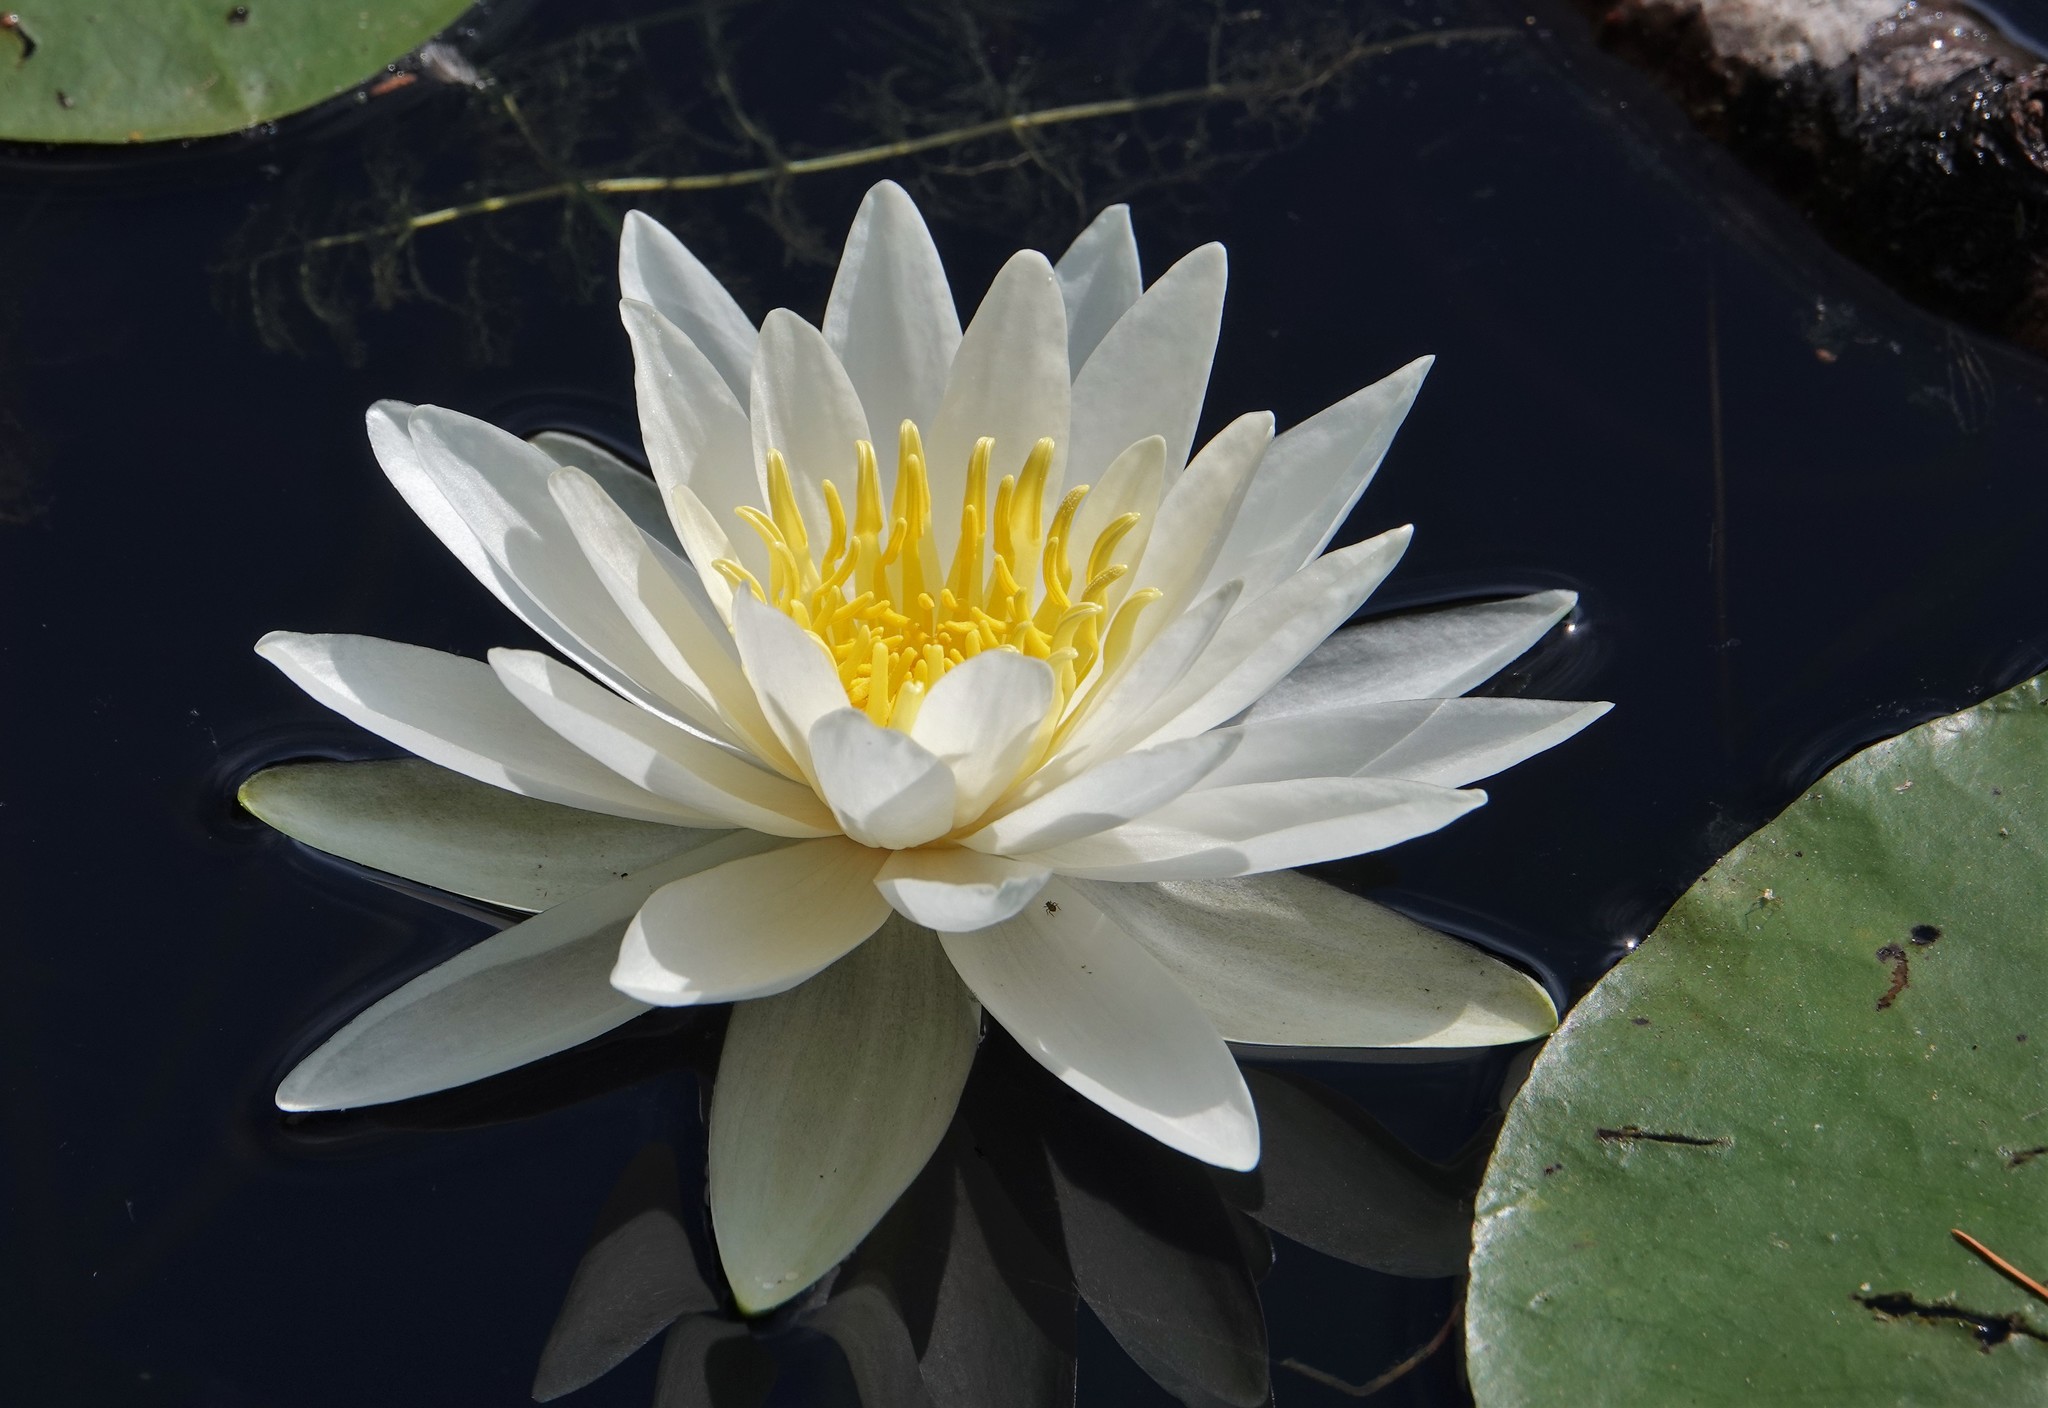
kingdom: Plantae
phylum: Tracheophyta
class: Magnoliopsida
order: Nymphaeales
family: Nymphaeaceae
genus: Nymphaea
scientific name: Nymphaea odorata
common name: Fragrant water-lily
